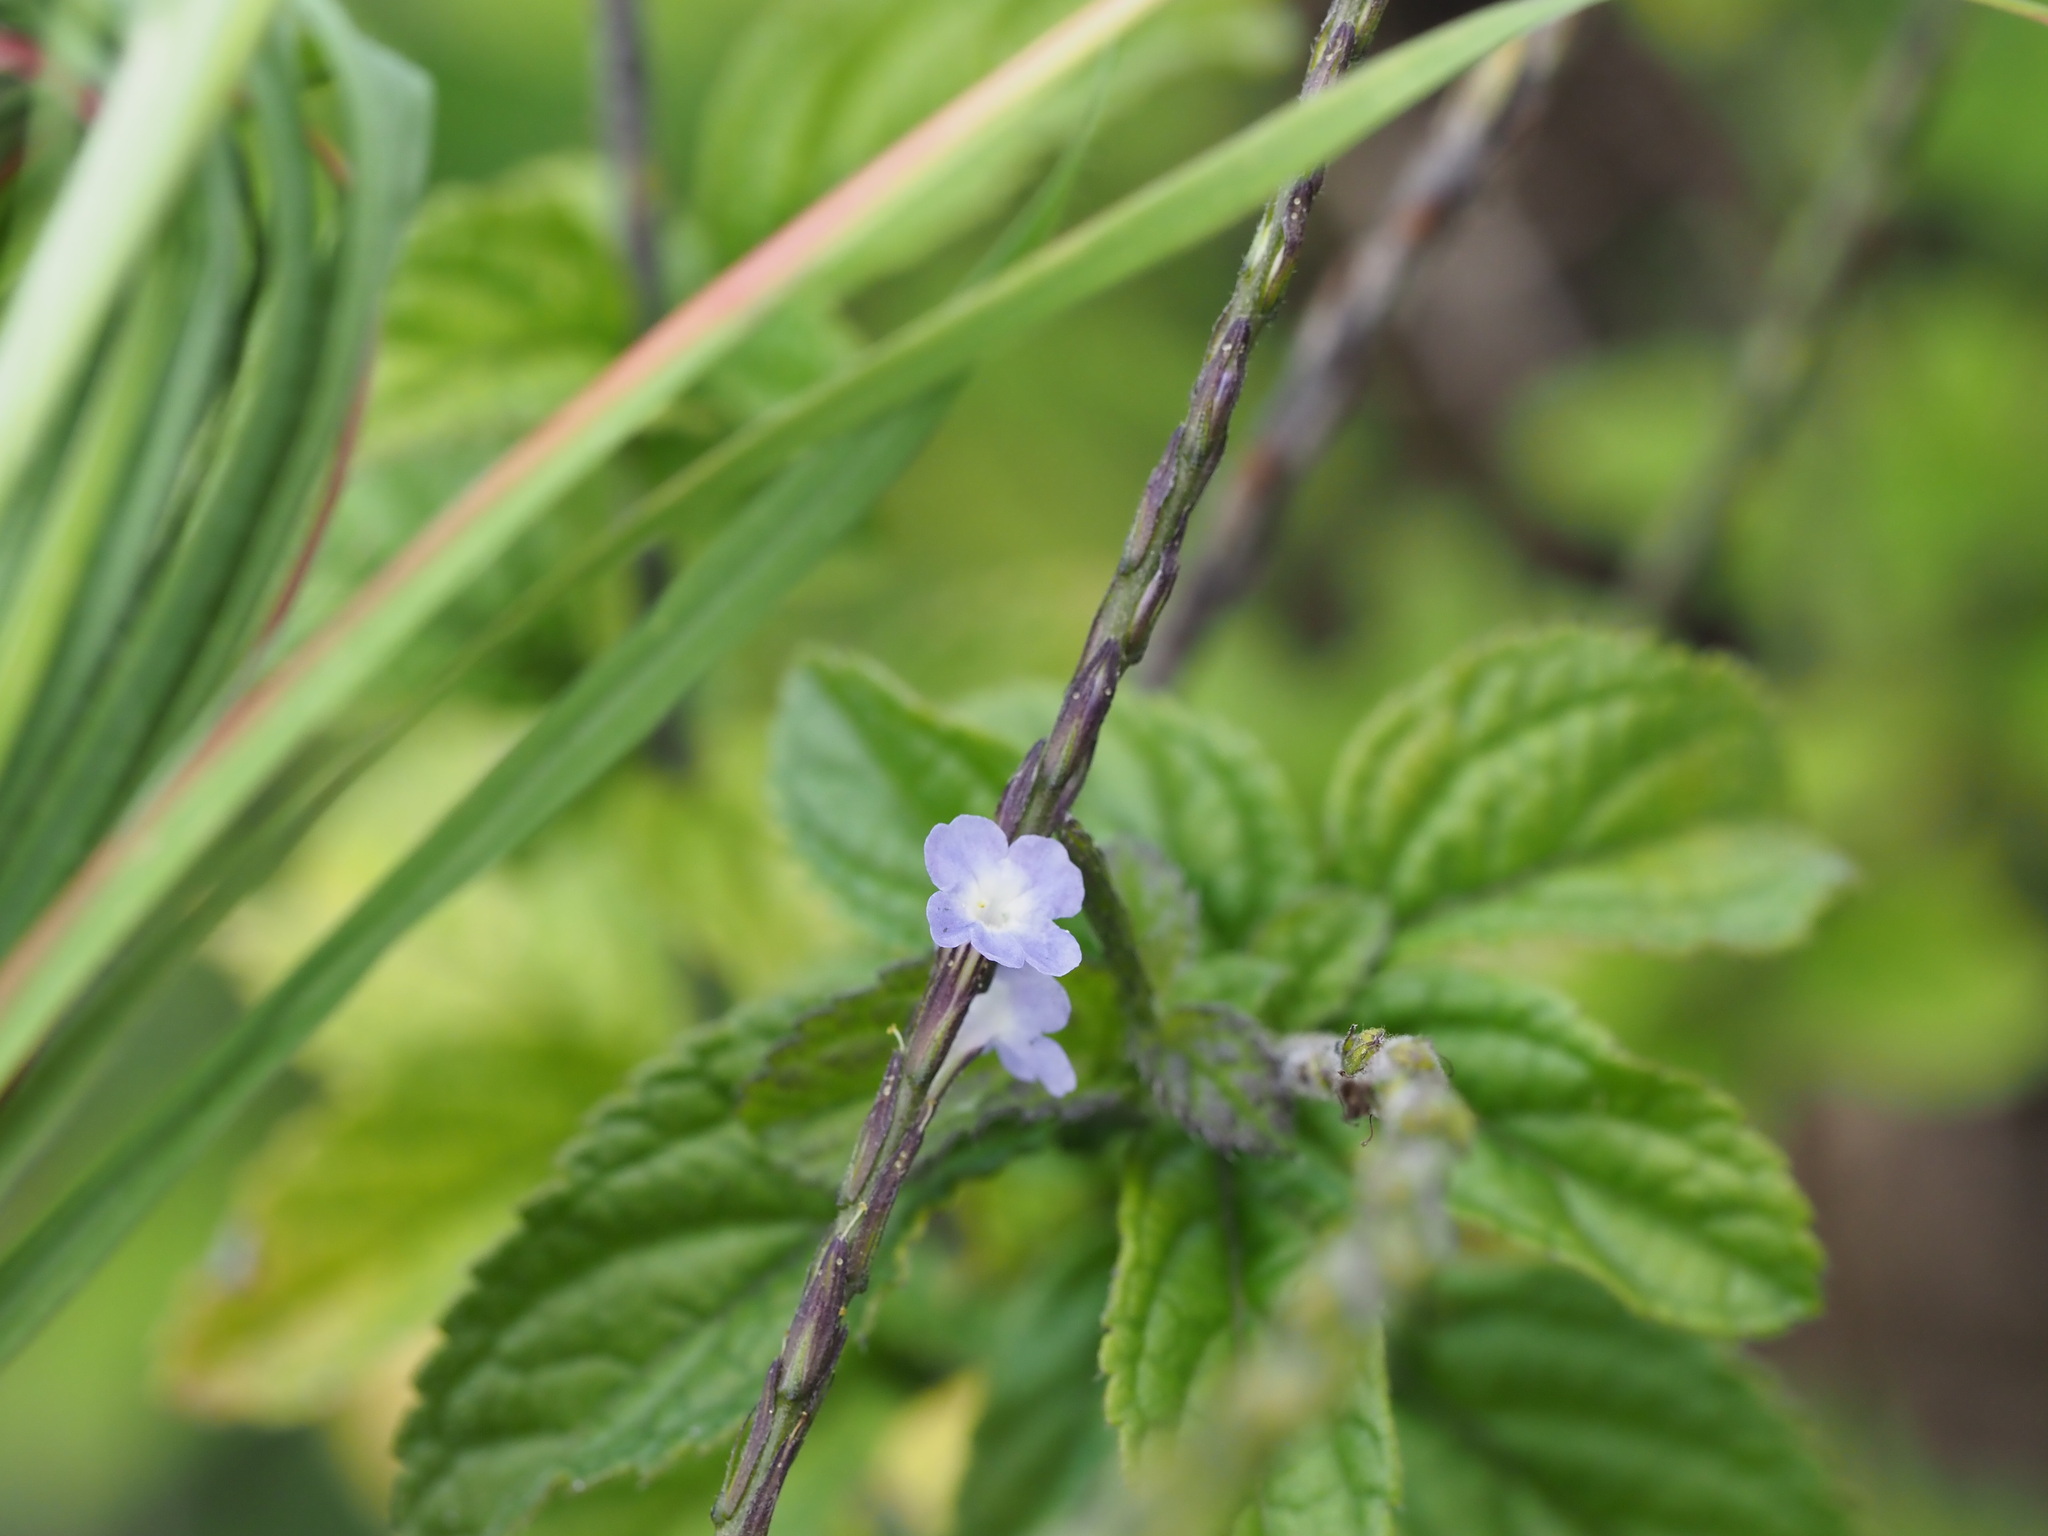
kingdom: Plantae
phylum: Tracheophyta
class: Magnoliopsida
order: Lamiales
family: Verbenaceae
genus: Stachytarpheta
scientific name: Stachytarpheta cayennensis
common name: Cayenne porterweed
